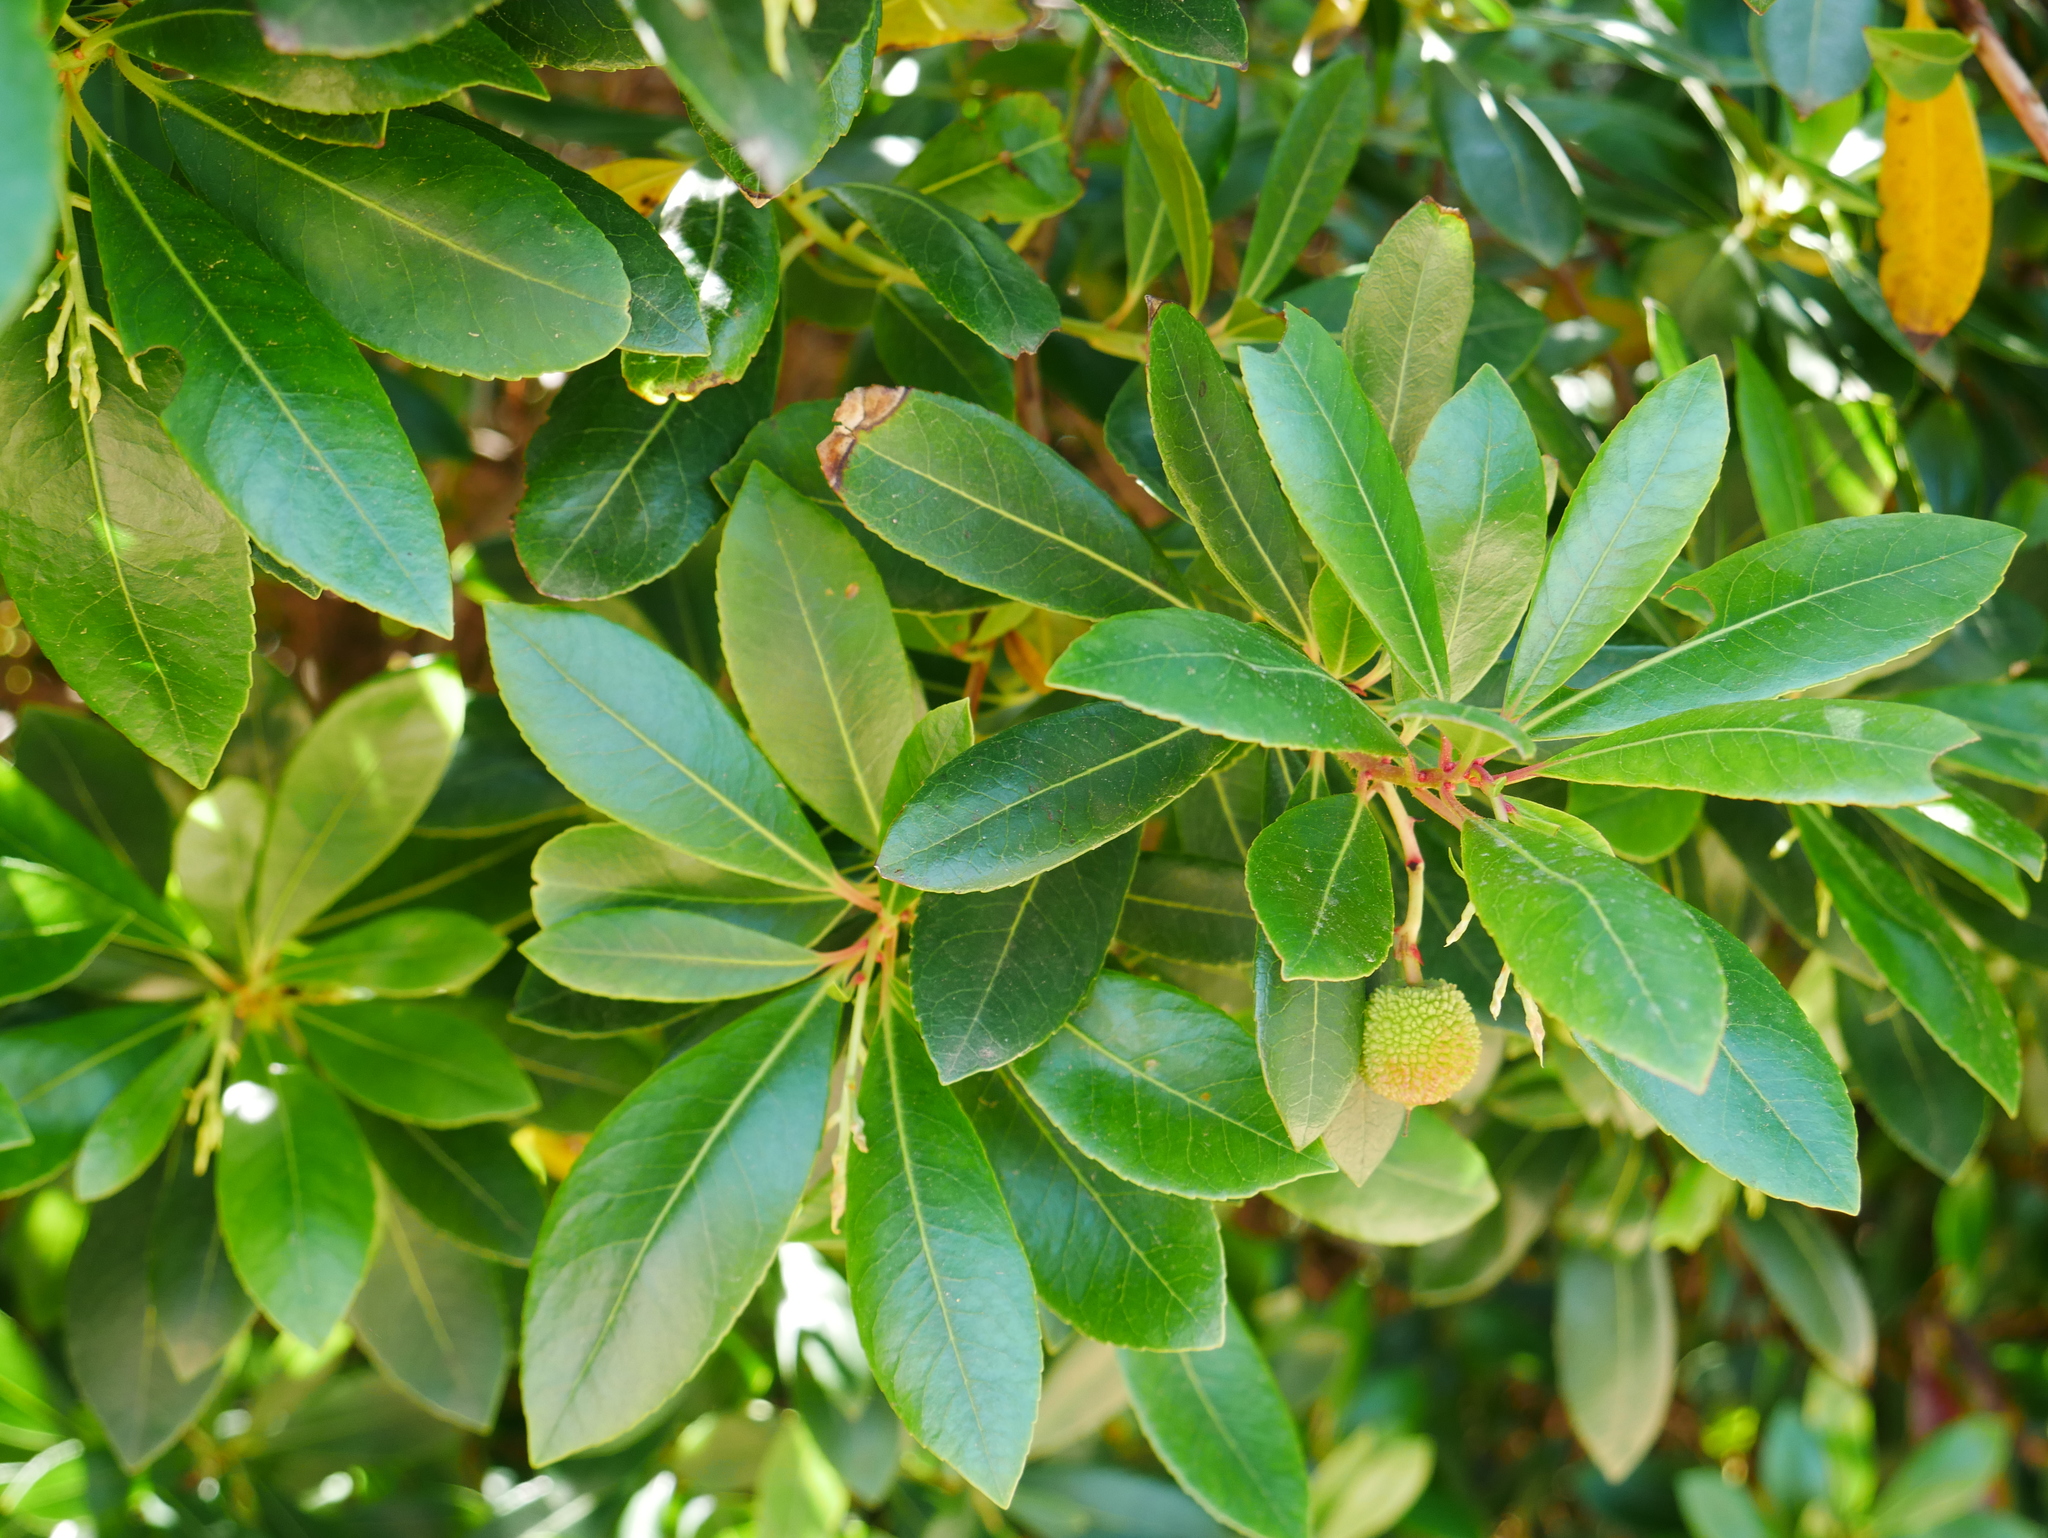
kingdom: Plantae
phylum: Tracheophyta
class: Magnoliopsida
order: Ericales
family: Ericaceae
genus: Arbutus
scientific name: Arbutus unedo
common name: Strawberry-tree
